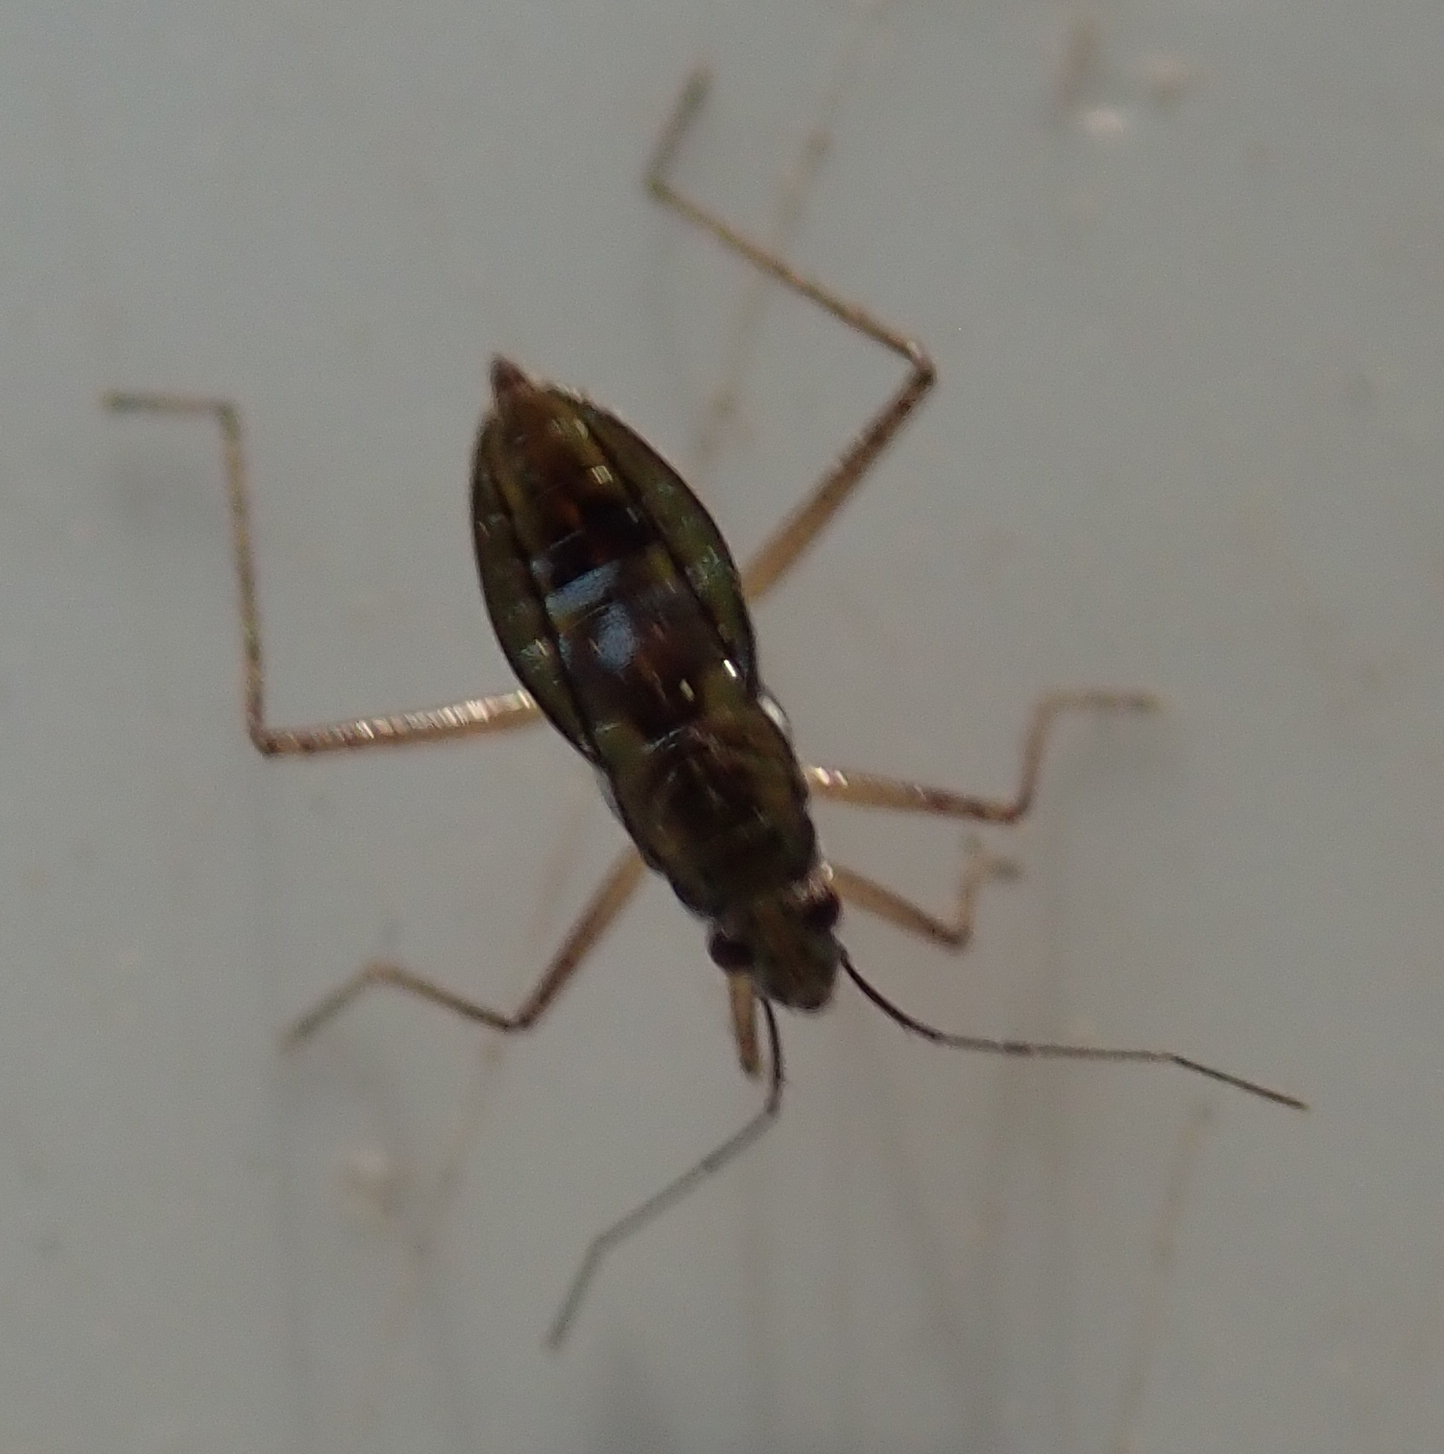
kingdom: Animalia
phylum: Arthropoda
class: Insecta
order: Hemiptera
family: Mesoveliidae
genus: Mesovelia
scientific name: Mesovelia vittigera
